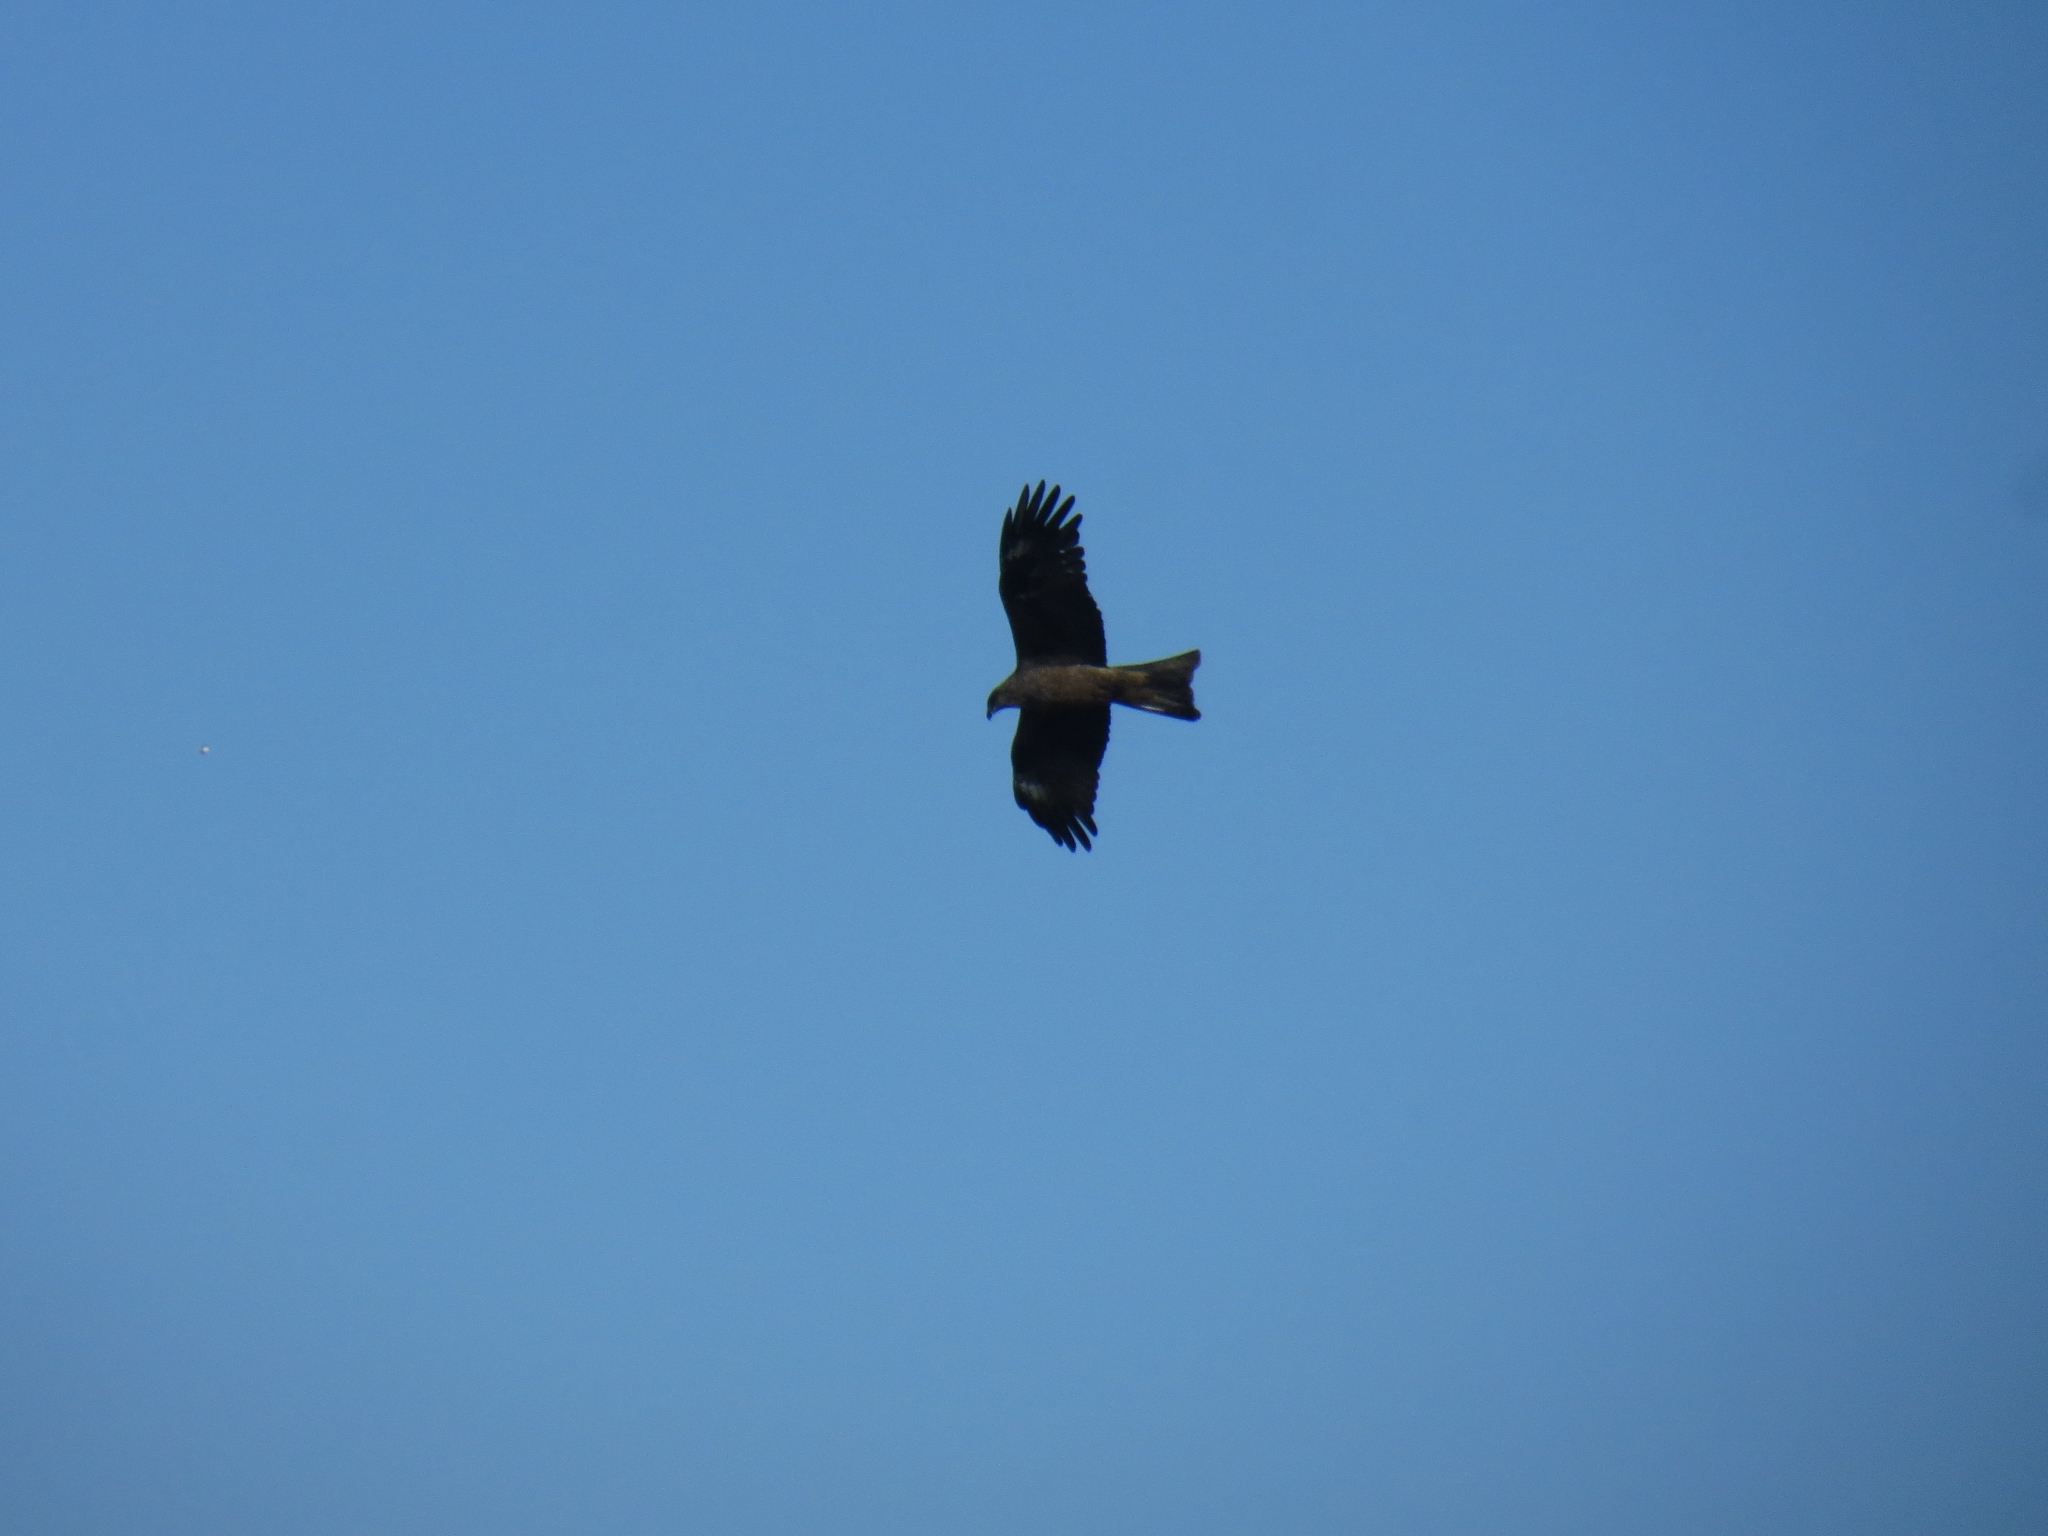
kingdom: Animalia
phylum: Chordata
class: Aves
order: Accipitriformes
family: Accipitridae
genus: Milvus
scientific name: Milvus migrans
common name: Black kite
